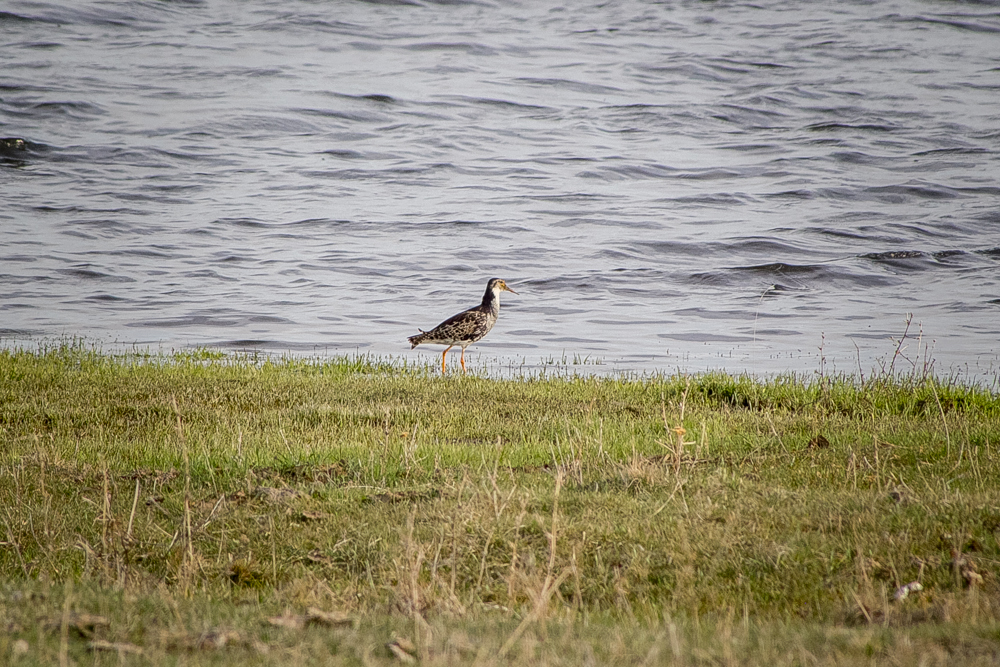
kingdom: Animalia
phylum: Chordata
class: Aves
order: Charadriiformes
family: Scolopacidae
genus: Calidris
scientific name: Calidris pugnax
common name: Ruff
